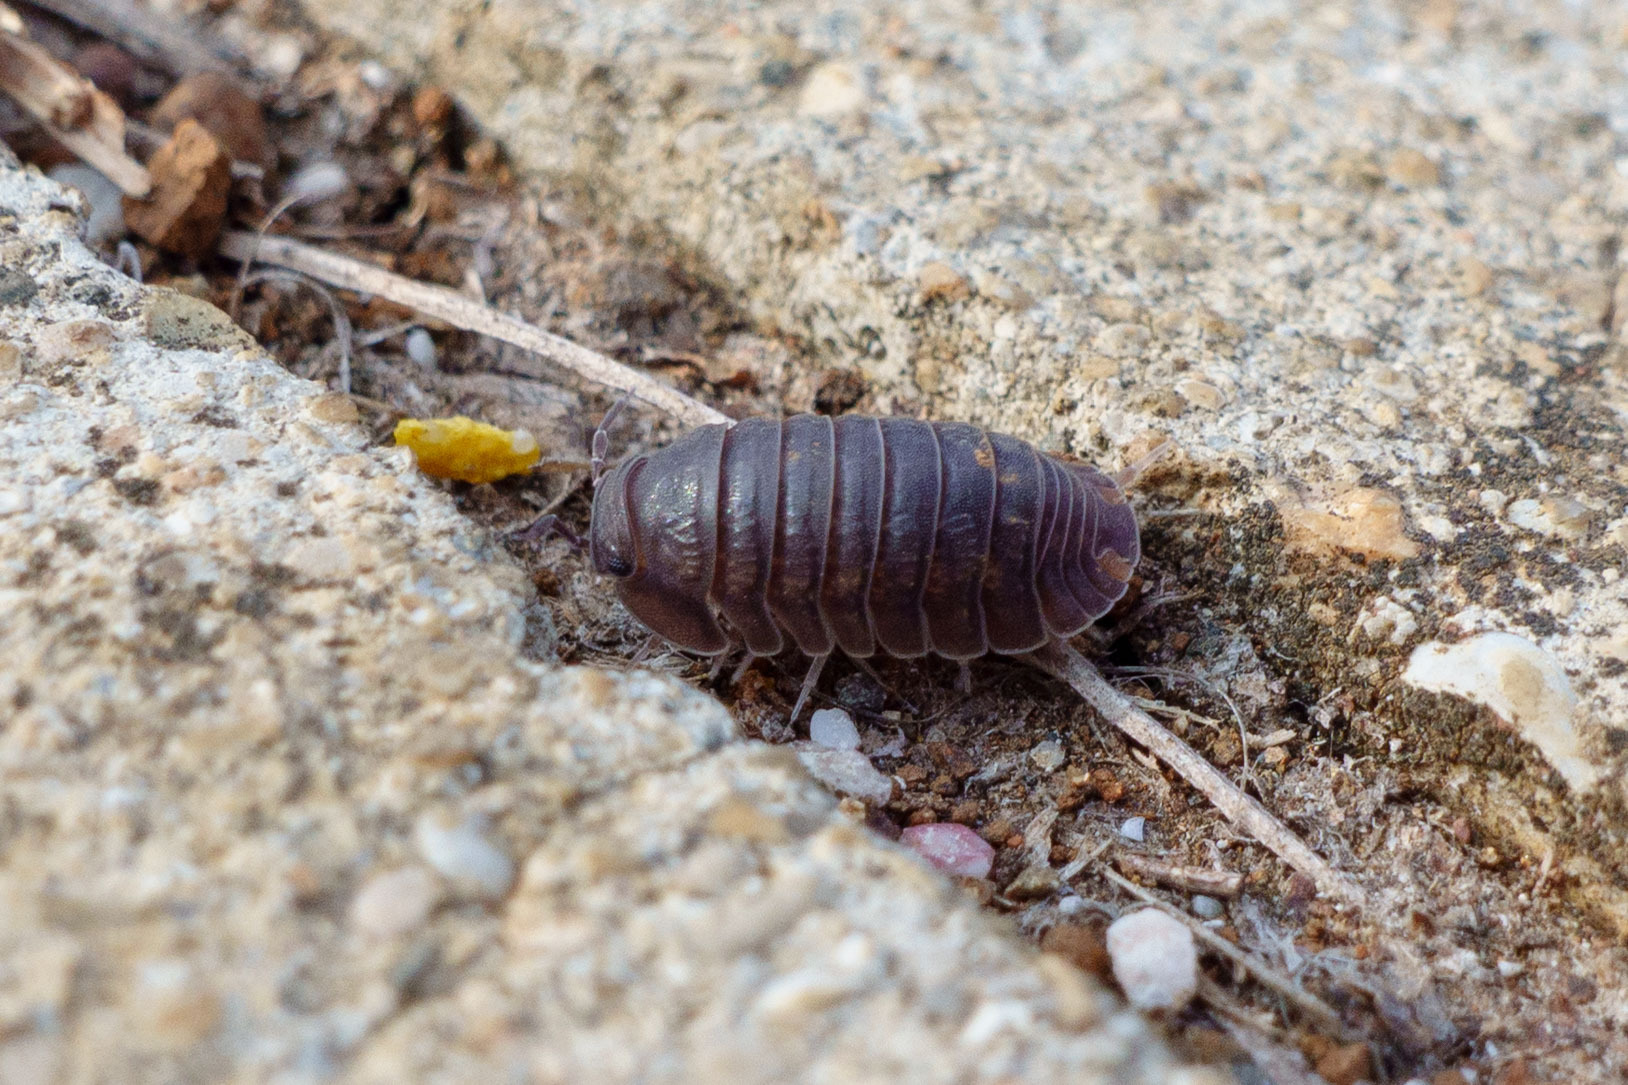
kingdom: Animalia
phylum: Arthropoda
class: Malacostraca
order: Isopoda
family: Armadillidae
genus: Cubaris
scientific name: Cubaris murina
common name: Pillbug
